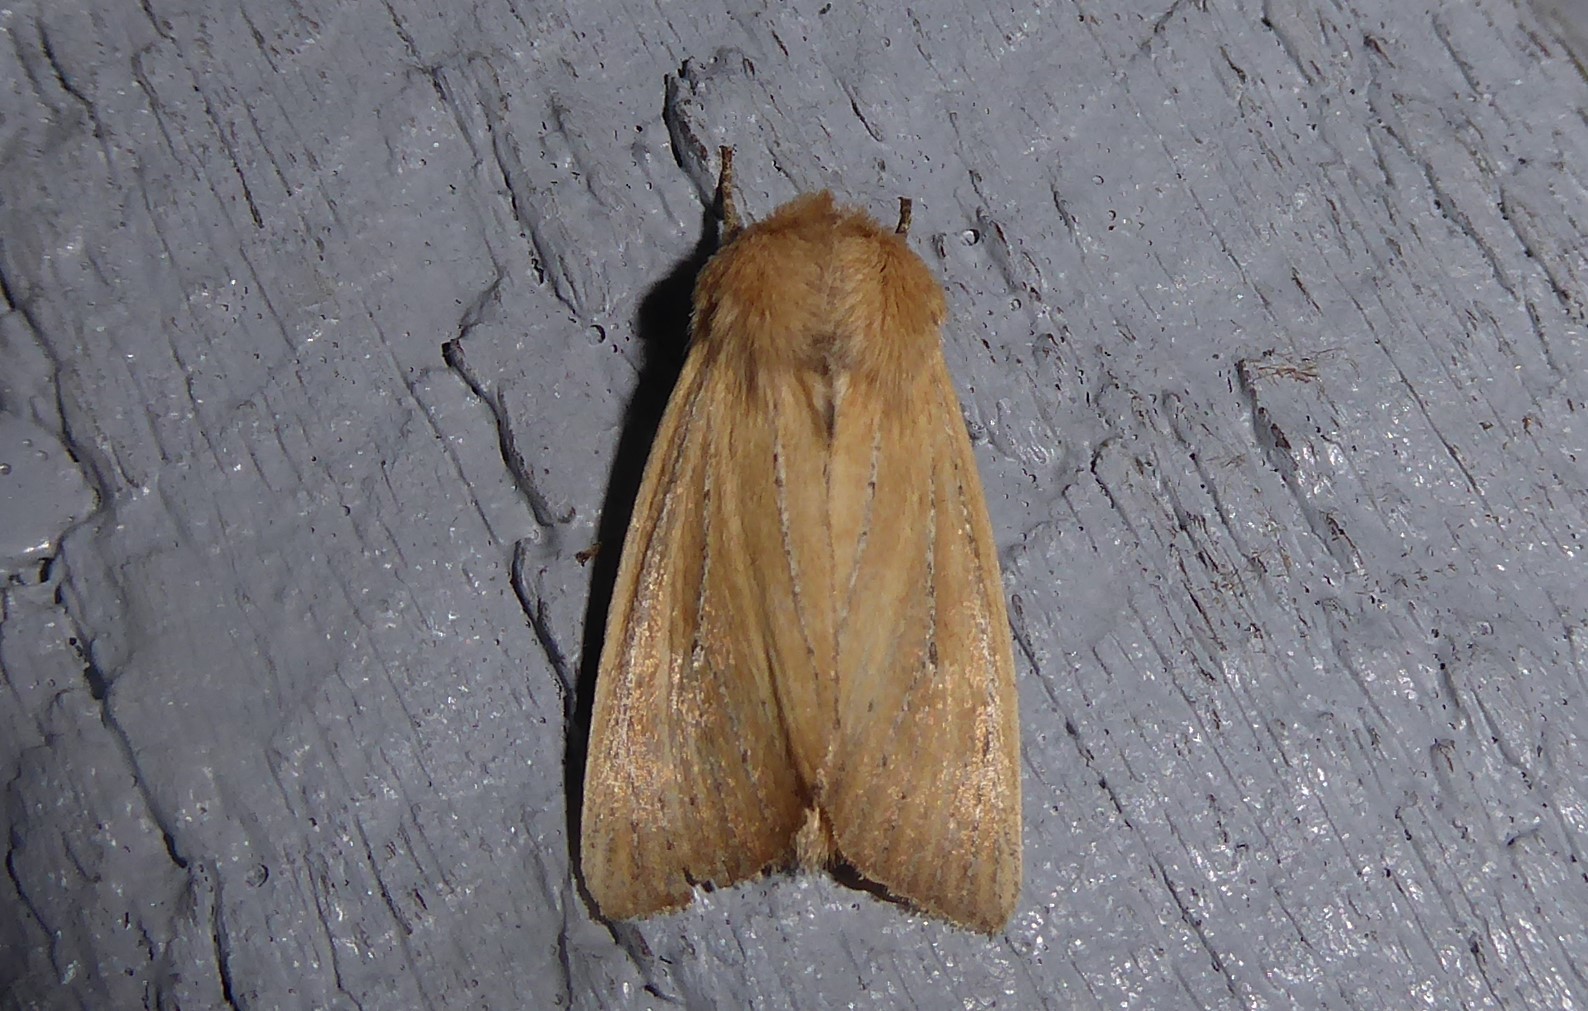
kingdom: Animalia
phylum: Arthropoda
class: Insecta
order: Lepidoptera
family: Noctuidae
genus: Ichneutica
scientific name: Ichneutica blenheimensis
